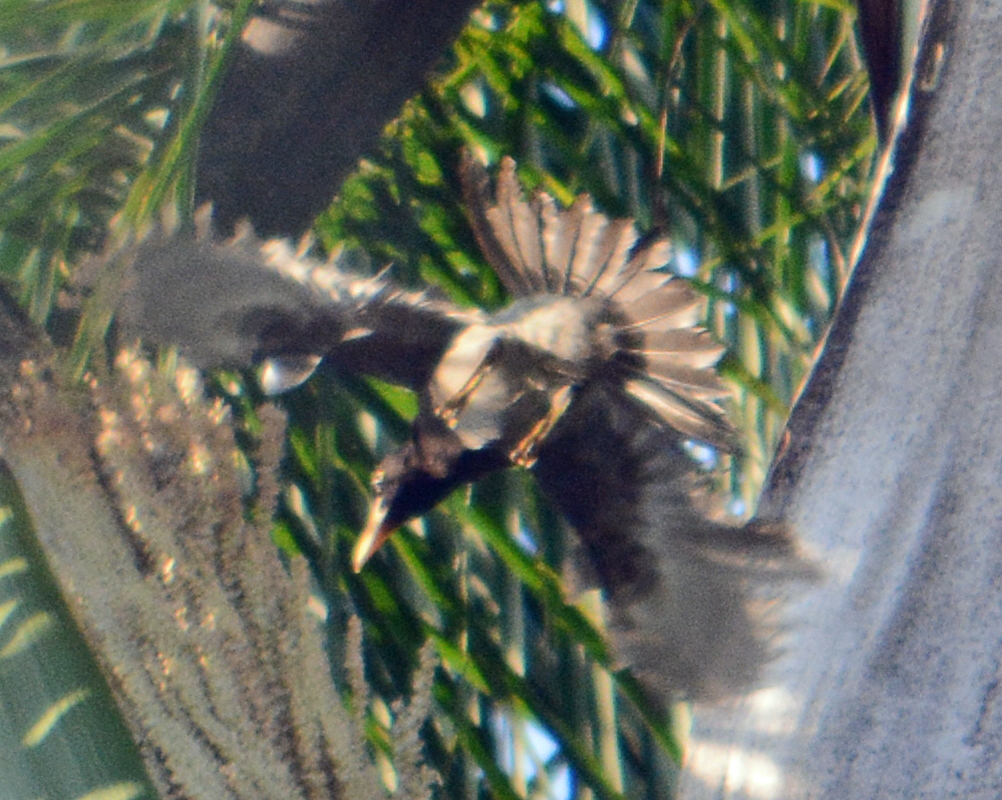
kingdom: Animalia
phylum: Chordata
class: Aves
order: Passeriformes
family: Corvidae
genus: Psilorhinus
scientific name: Psilorhinus morio
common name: Brown jay
